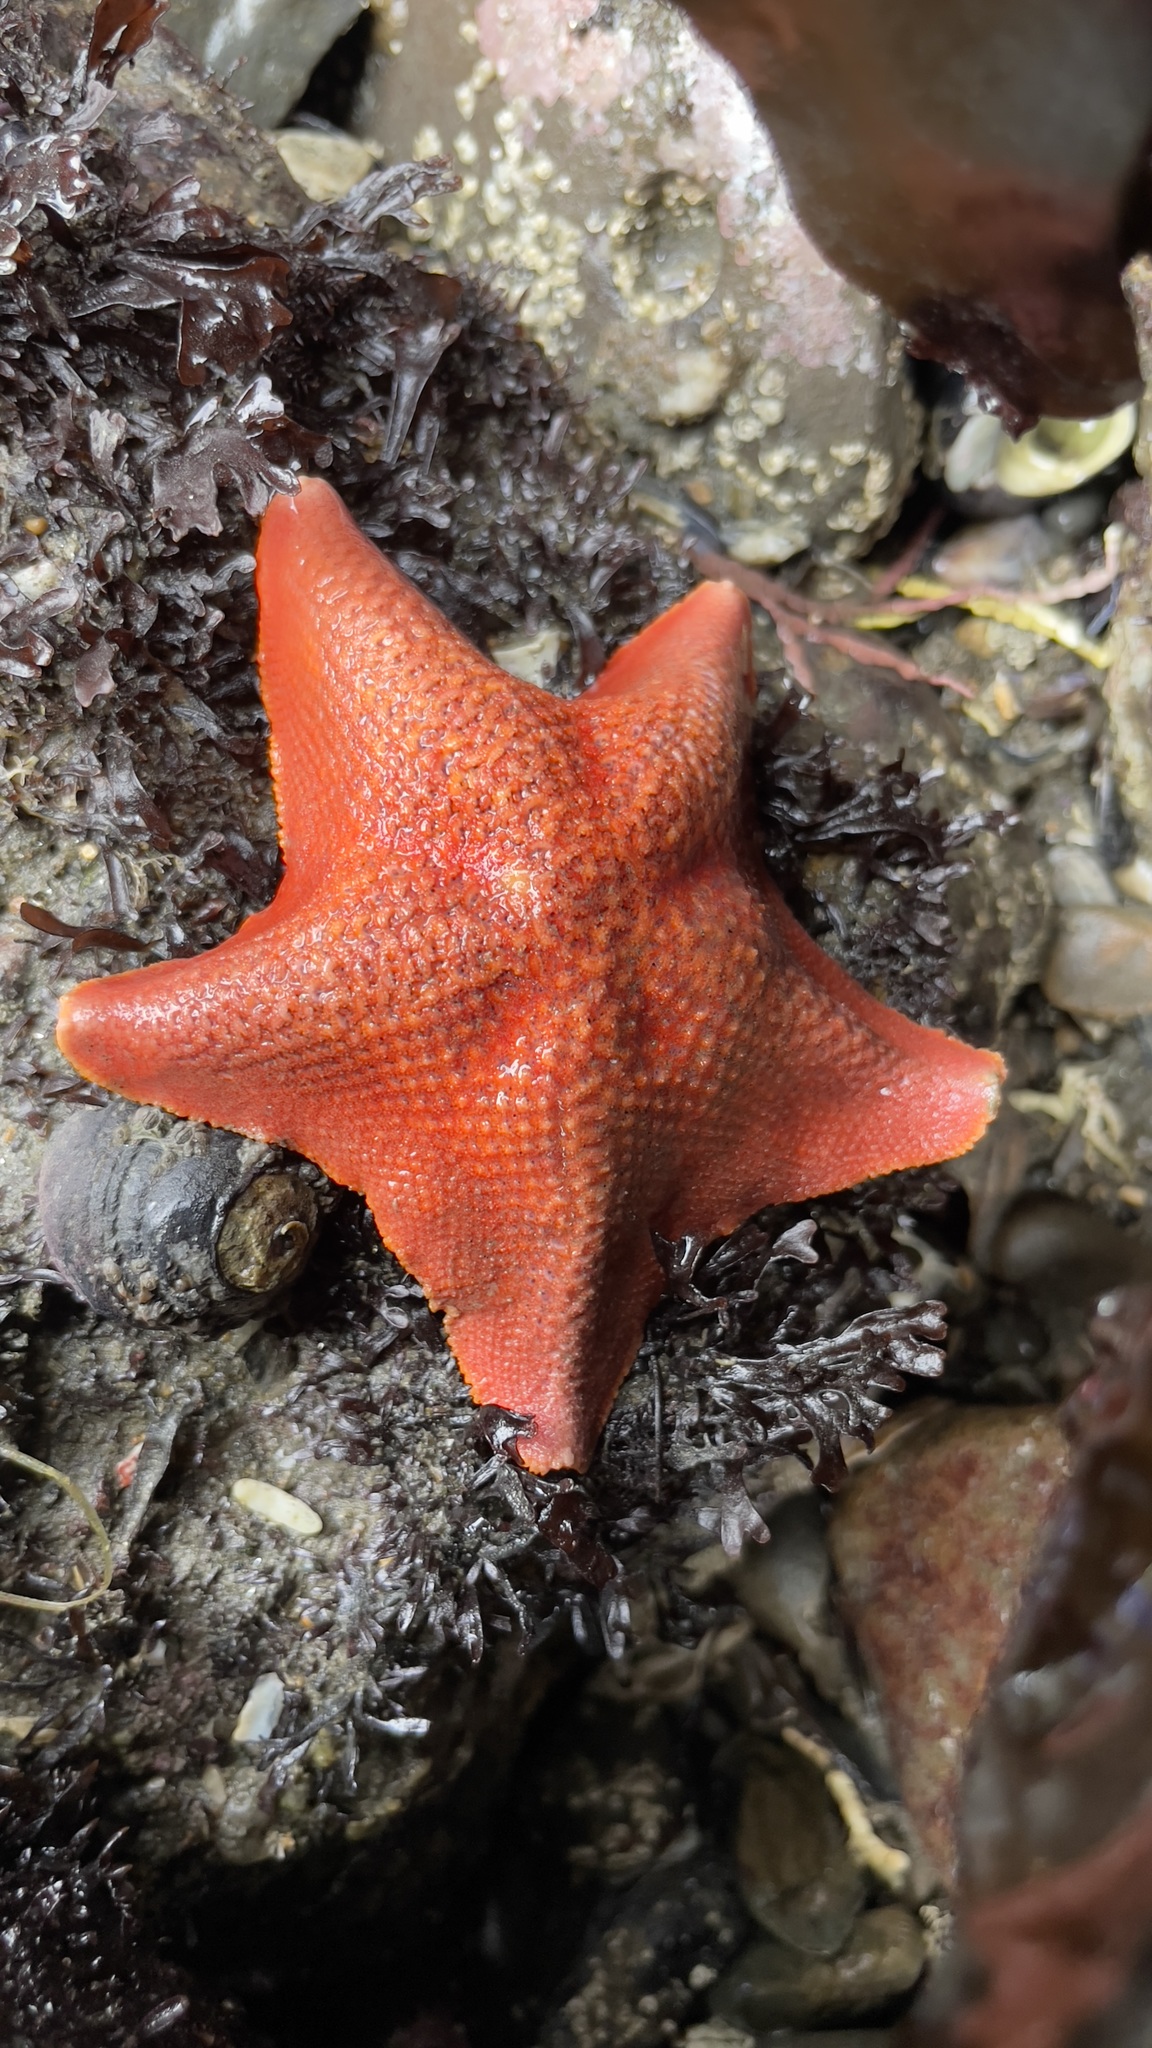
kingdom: Animalia
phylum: Echinodermata
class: Asteroidea
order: Valvatida
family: Asterinidae
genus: Patiria
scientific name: Patiria miniata
